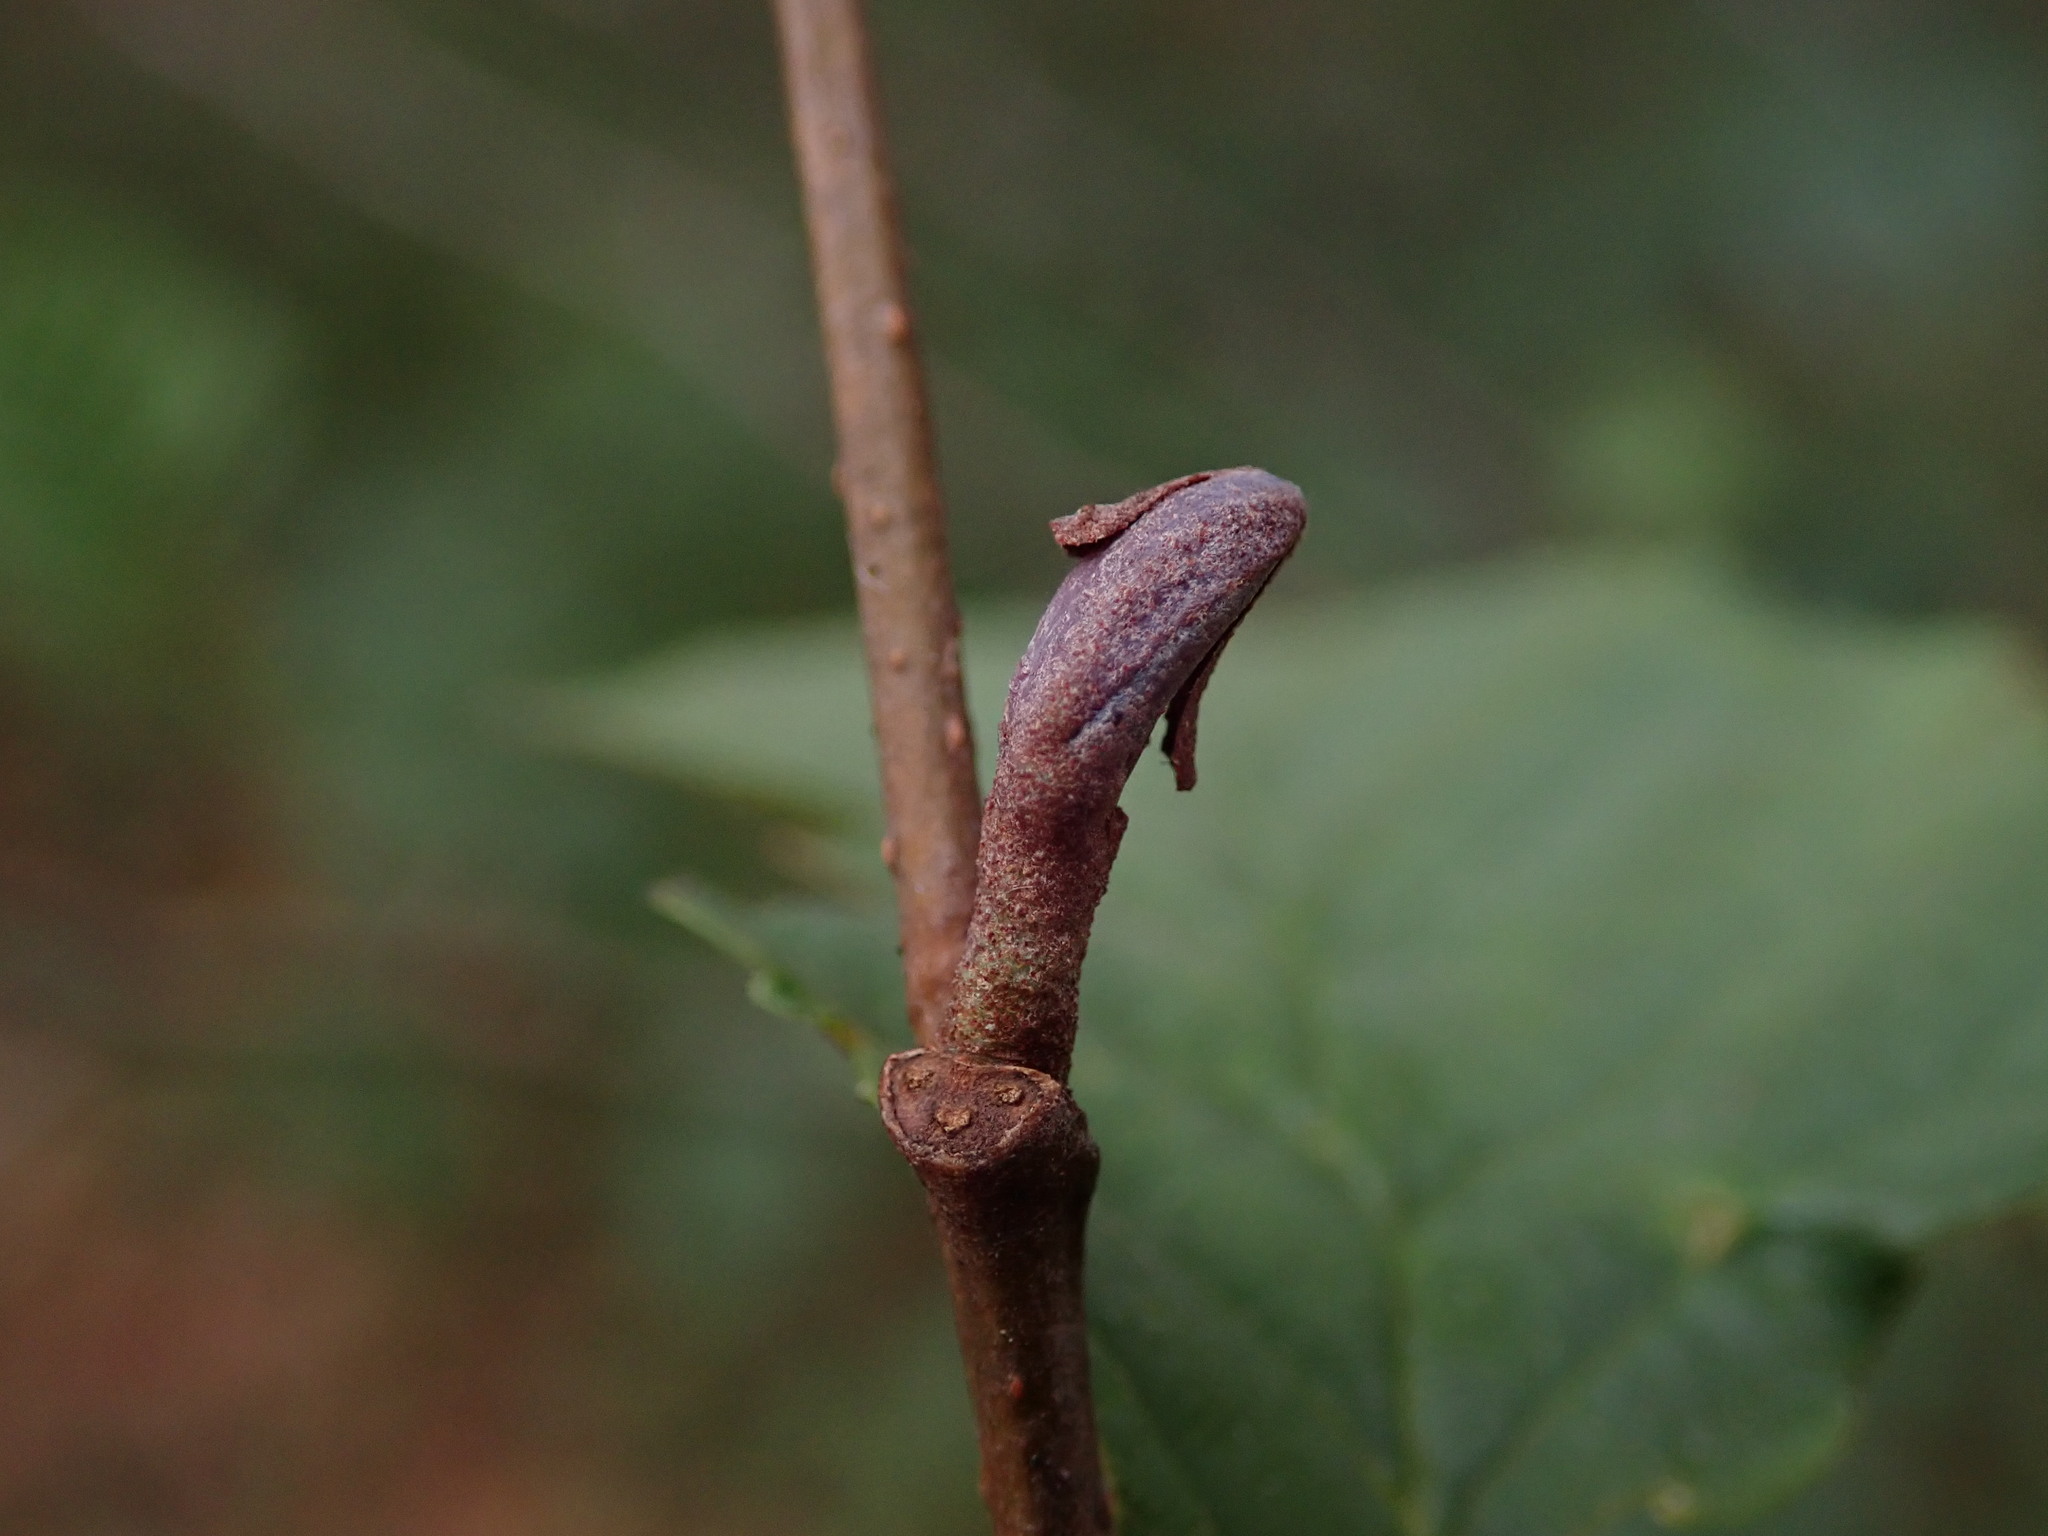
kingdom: Plantae
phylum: Tracheophyta
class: Magnoliopsida
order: Fagales
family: Betulaceae
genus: Alnus
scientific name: Alnus glutinosa
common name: Black alder
